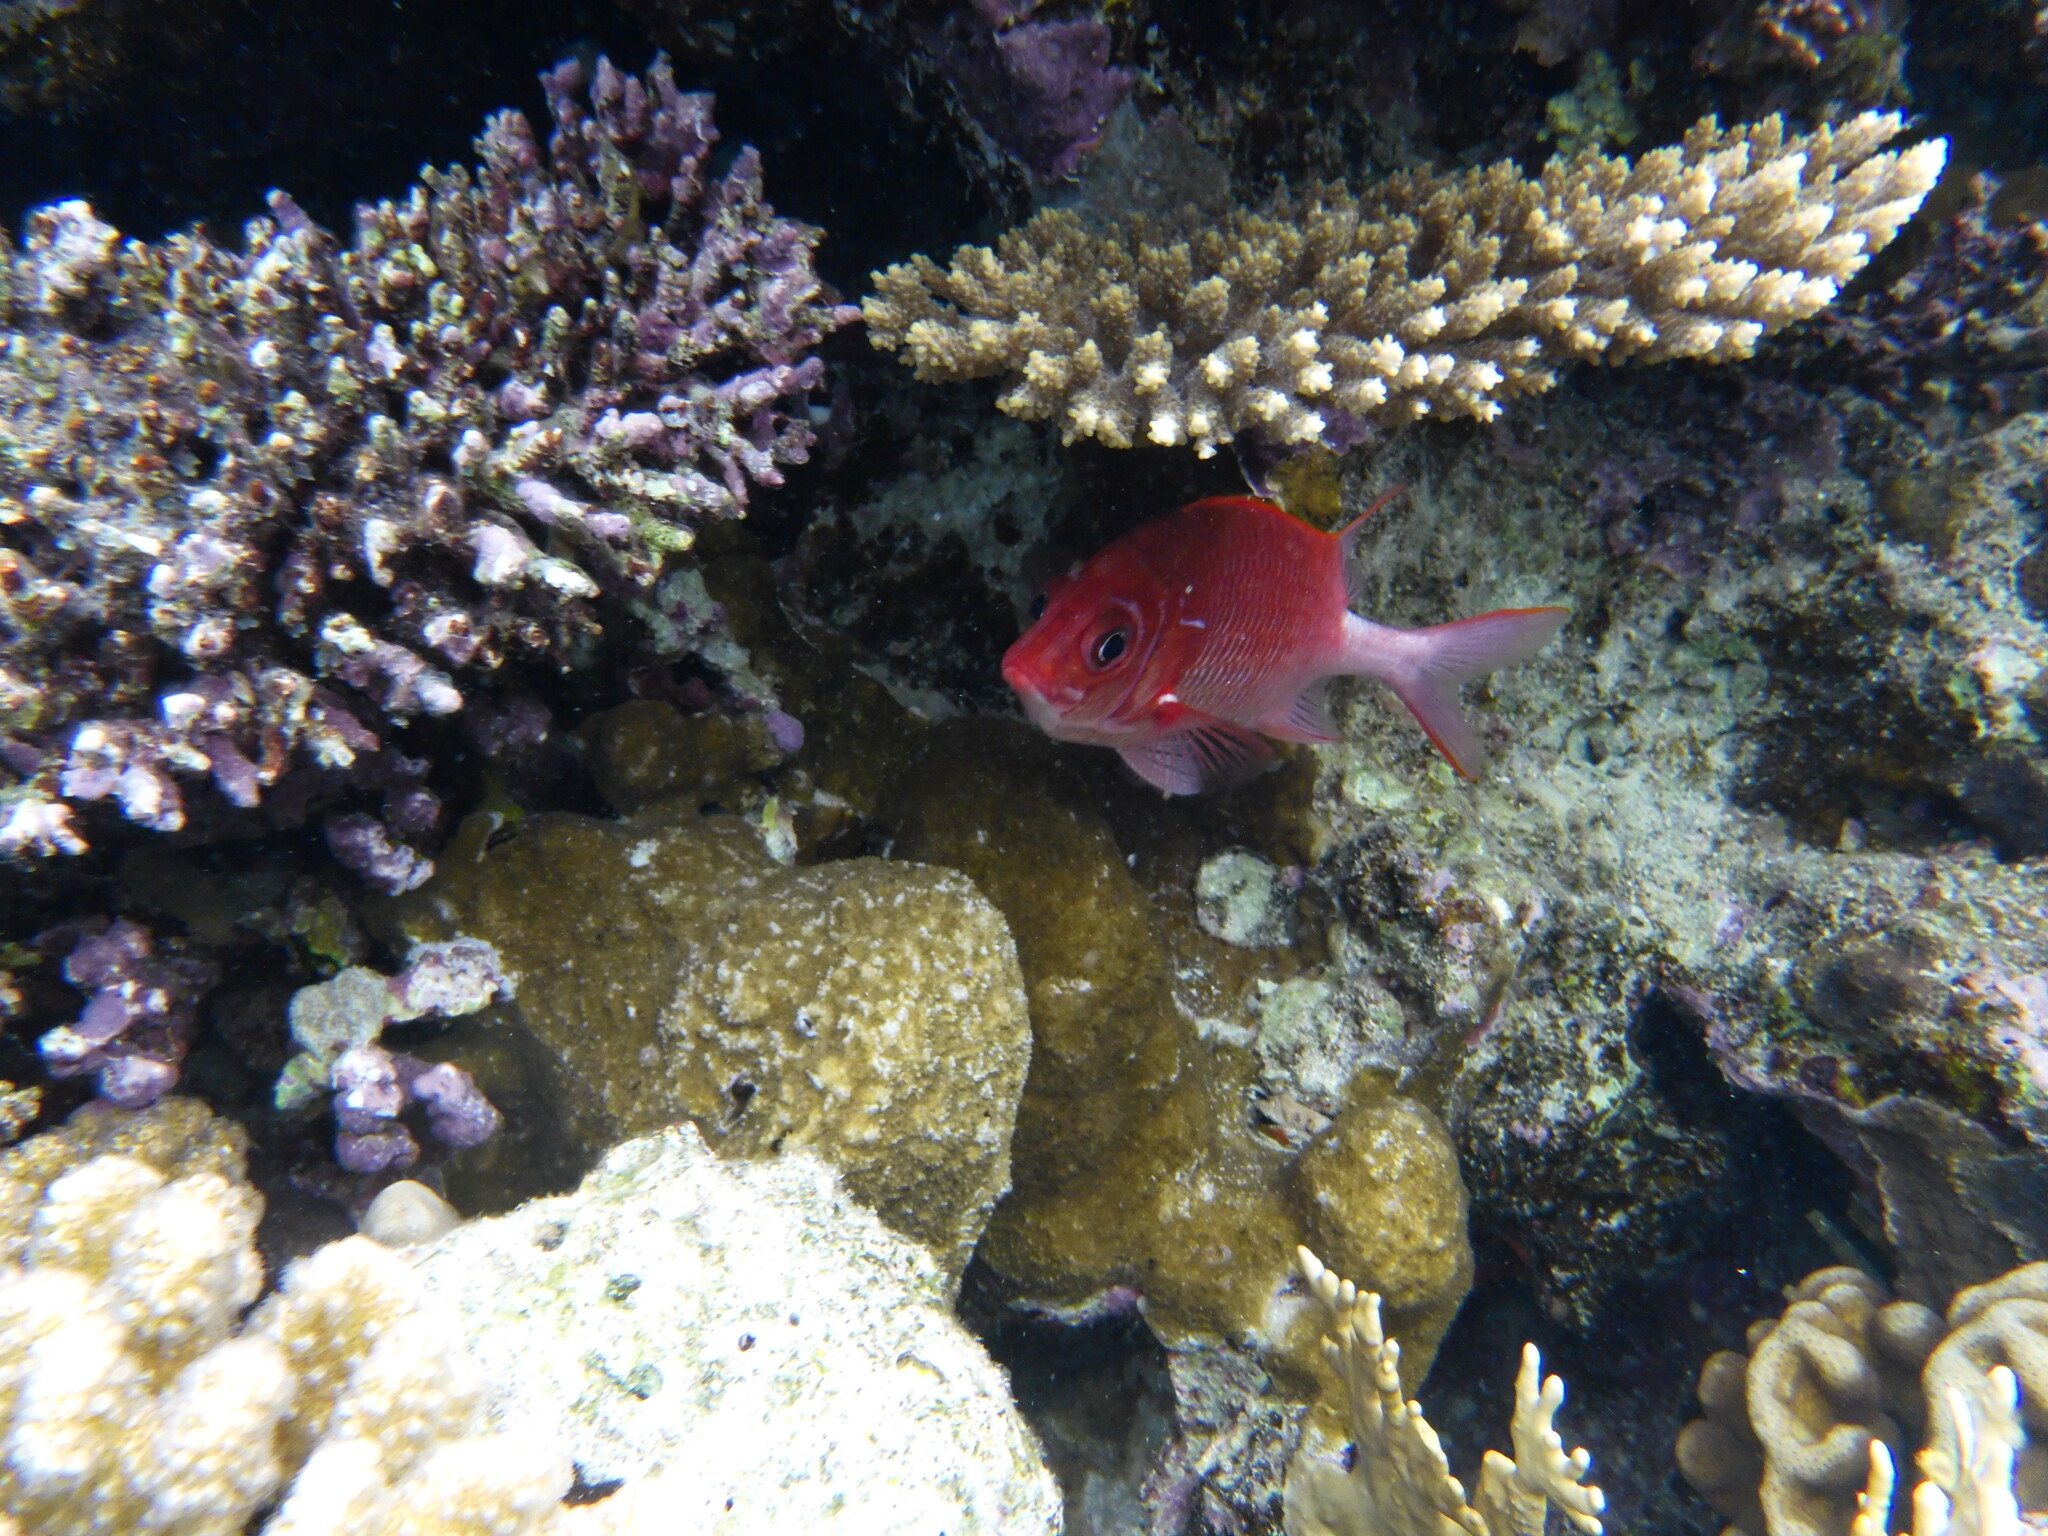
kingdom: Animalia
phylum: Chordata
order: Beryciformes
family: Holocentridae
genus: Sargocentron
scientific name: Sargocentron caudimaculatum
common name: Fanfin soldier
